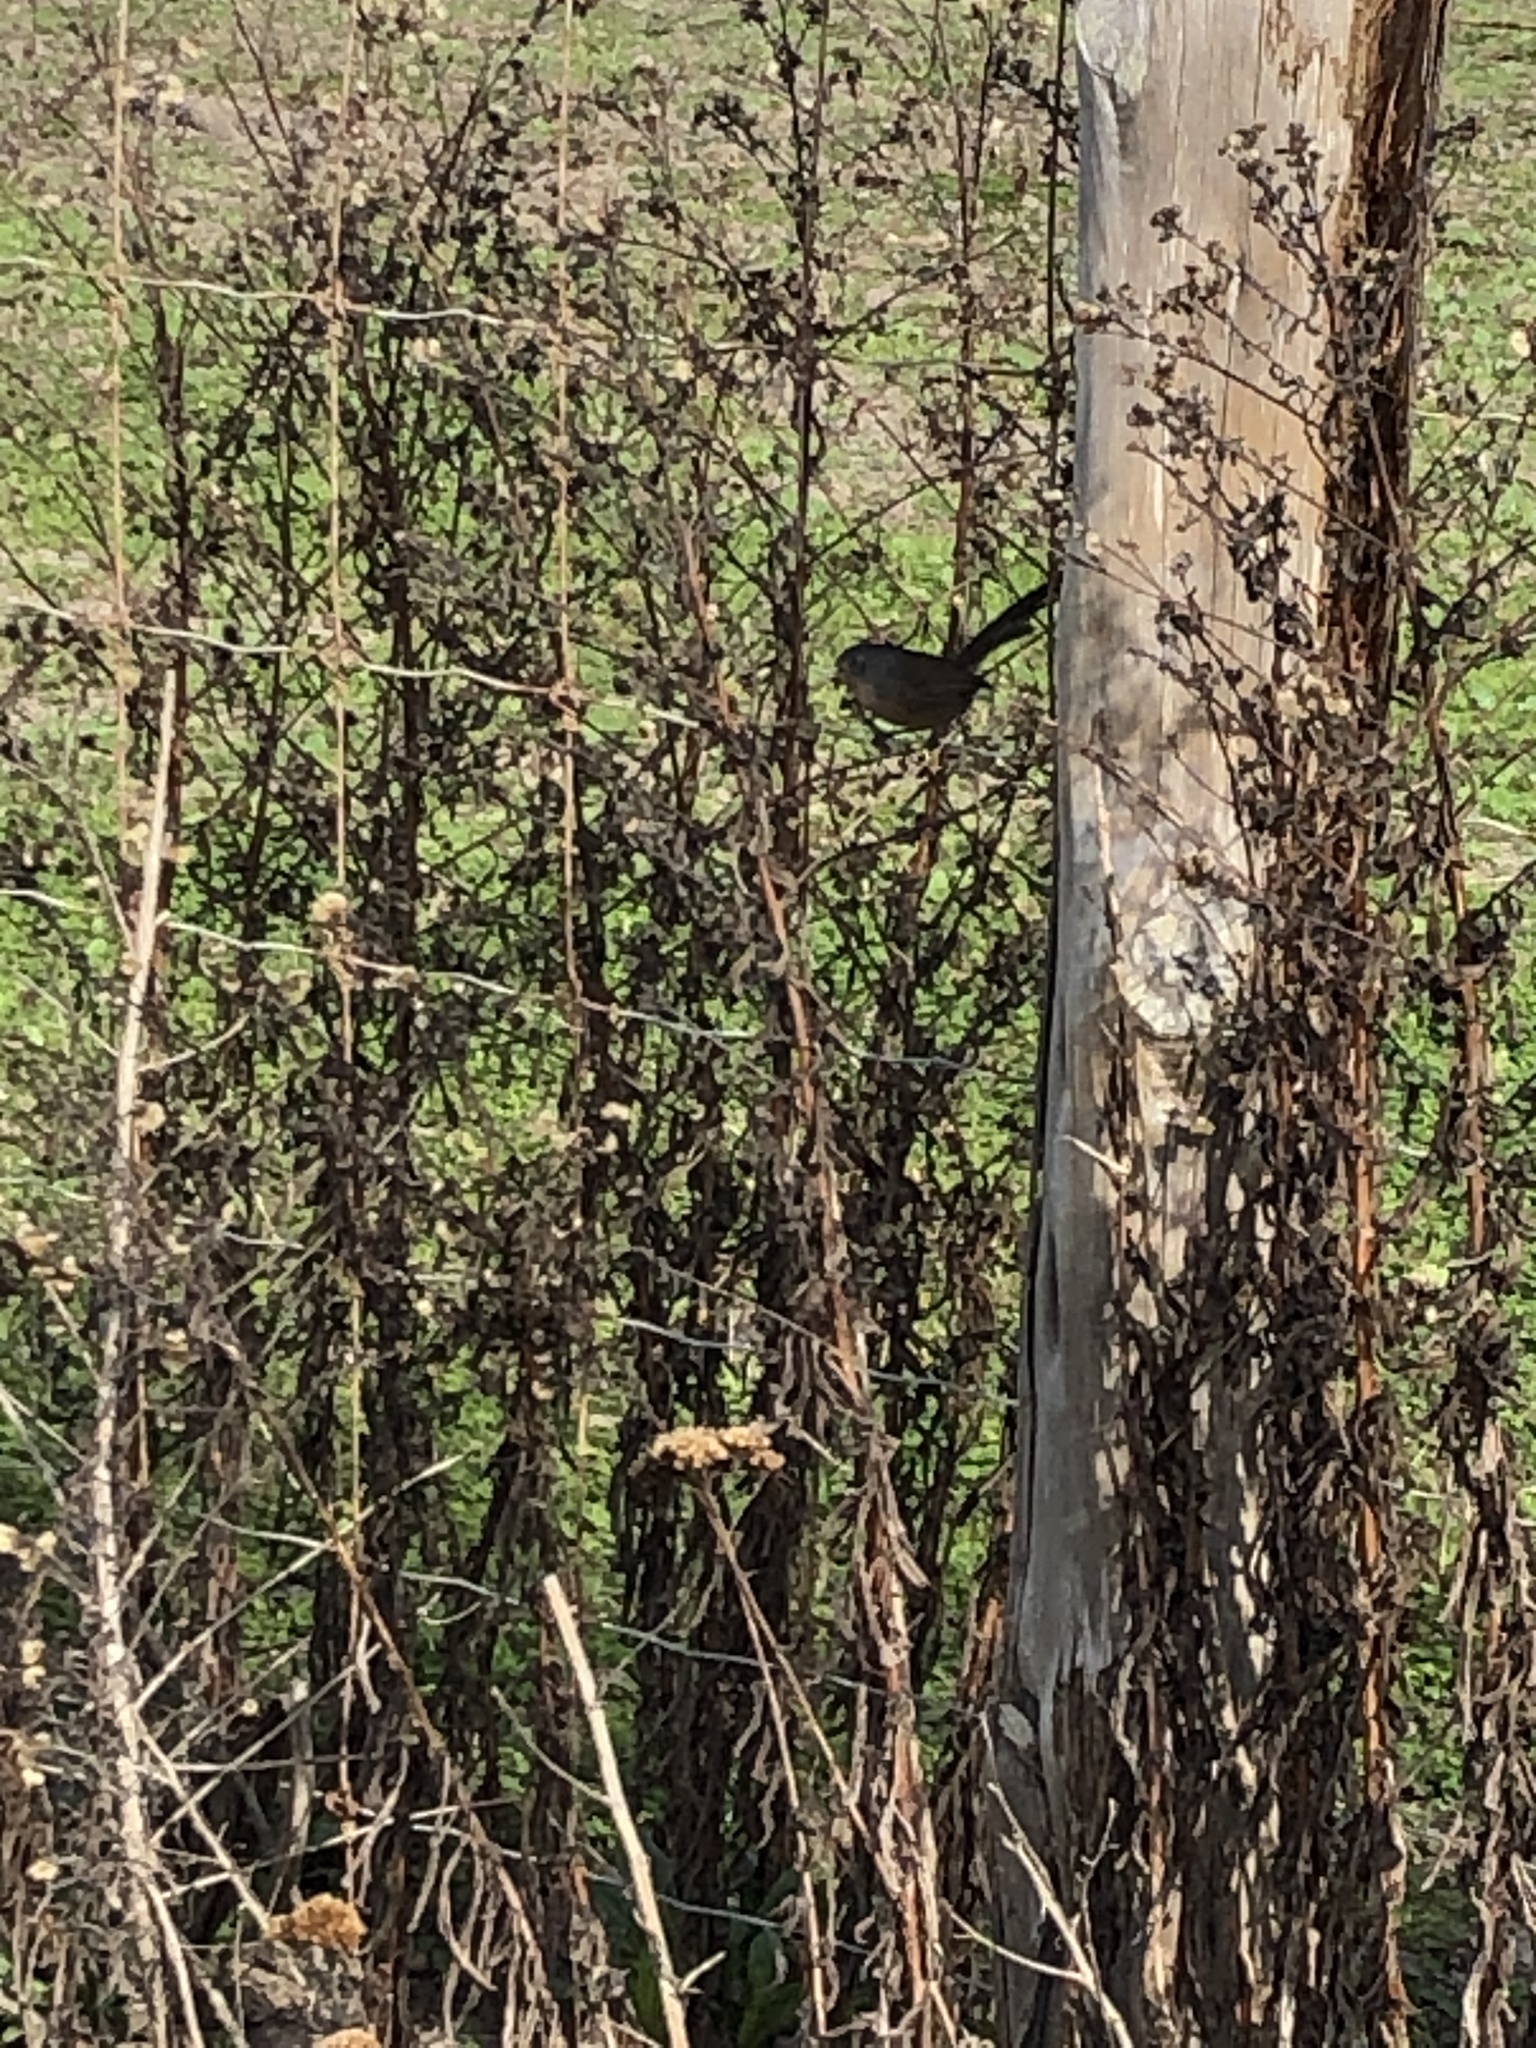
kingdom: Animalia
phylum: Chordata
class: Aves
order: Passeriformes
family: Sylviidae
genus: Chamaea
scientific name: Chamaea fasciata
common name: Wrentit
